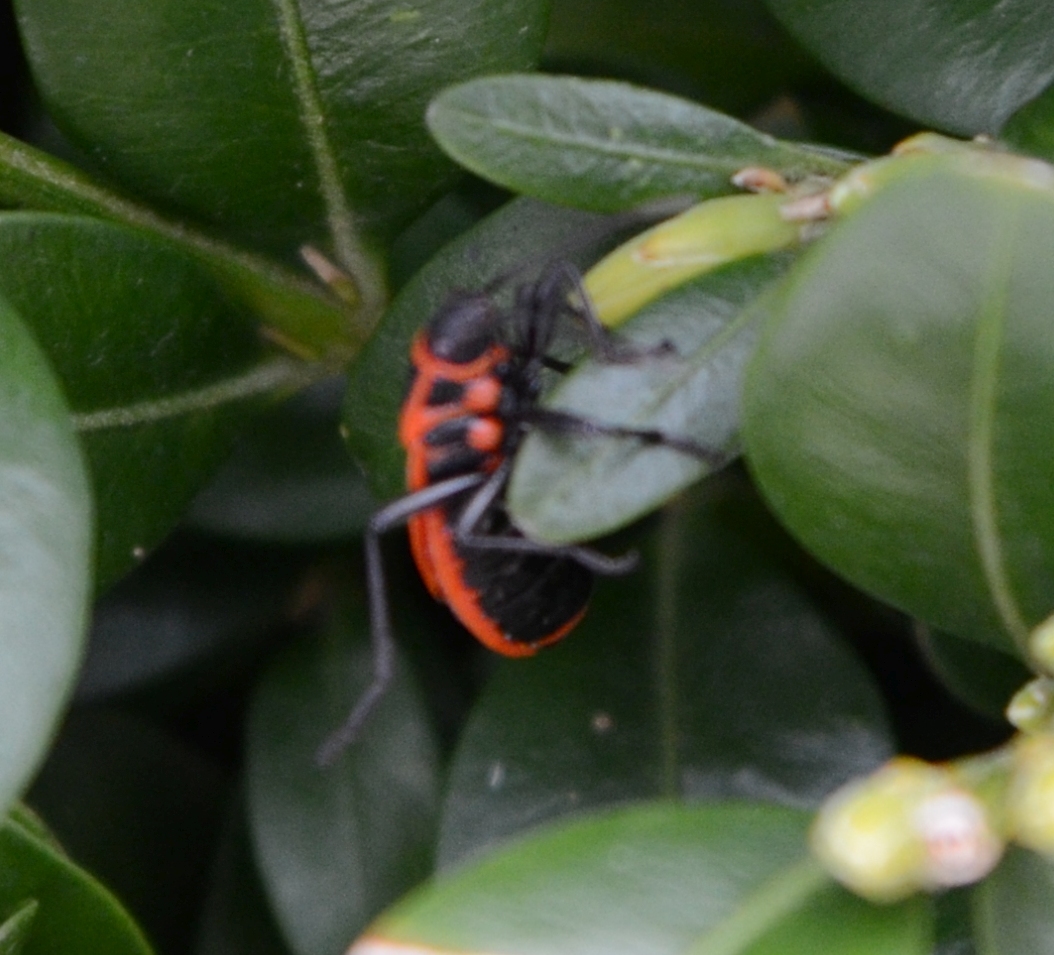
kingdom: Animalia
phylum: Arthropoda
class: Insecta
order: Hemiptera
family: Pyrrhocoridae
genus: Pyrrhocoris
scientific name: Pyrrhocoris apterus
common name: Firebug
